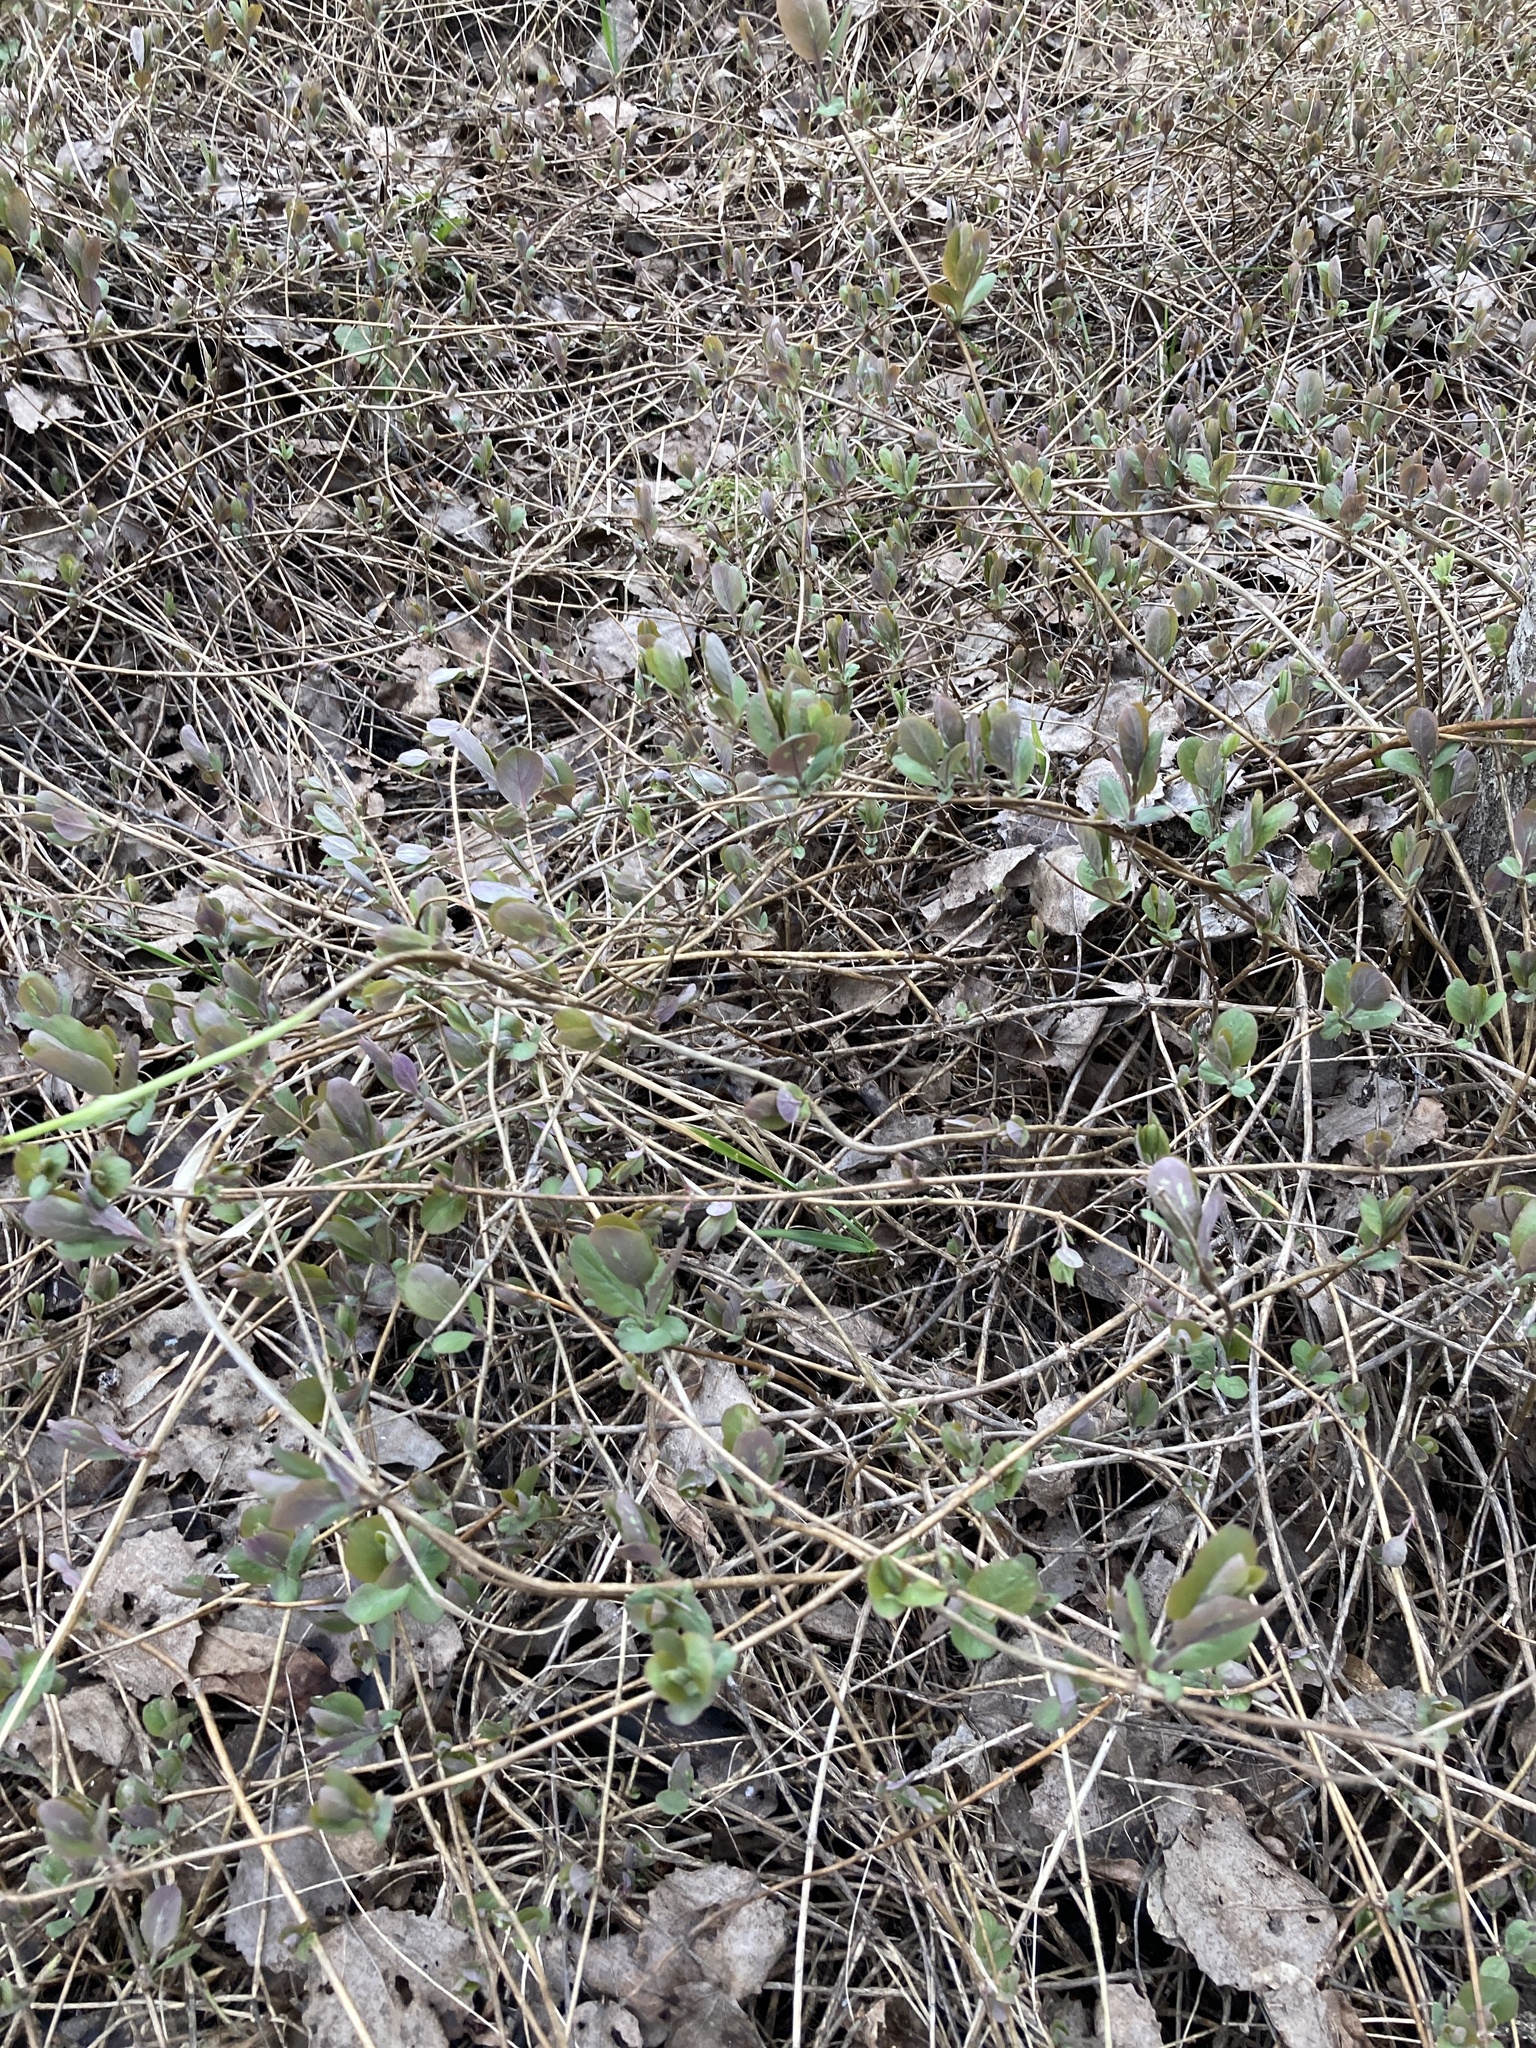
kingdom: Plantae
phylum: Tracheophyta
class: Magnoliopsida
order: Dipsacales
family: Caprifoliaceae
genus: Lonicera
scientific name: Lonicera caprifolium
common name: Perfoliate honeysuckle
